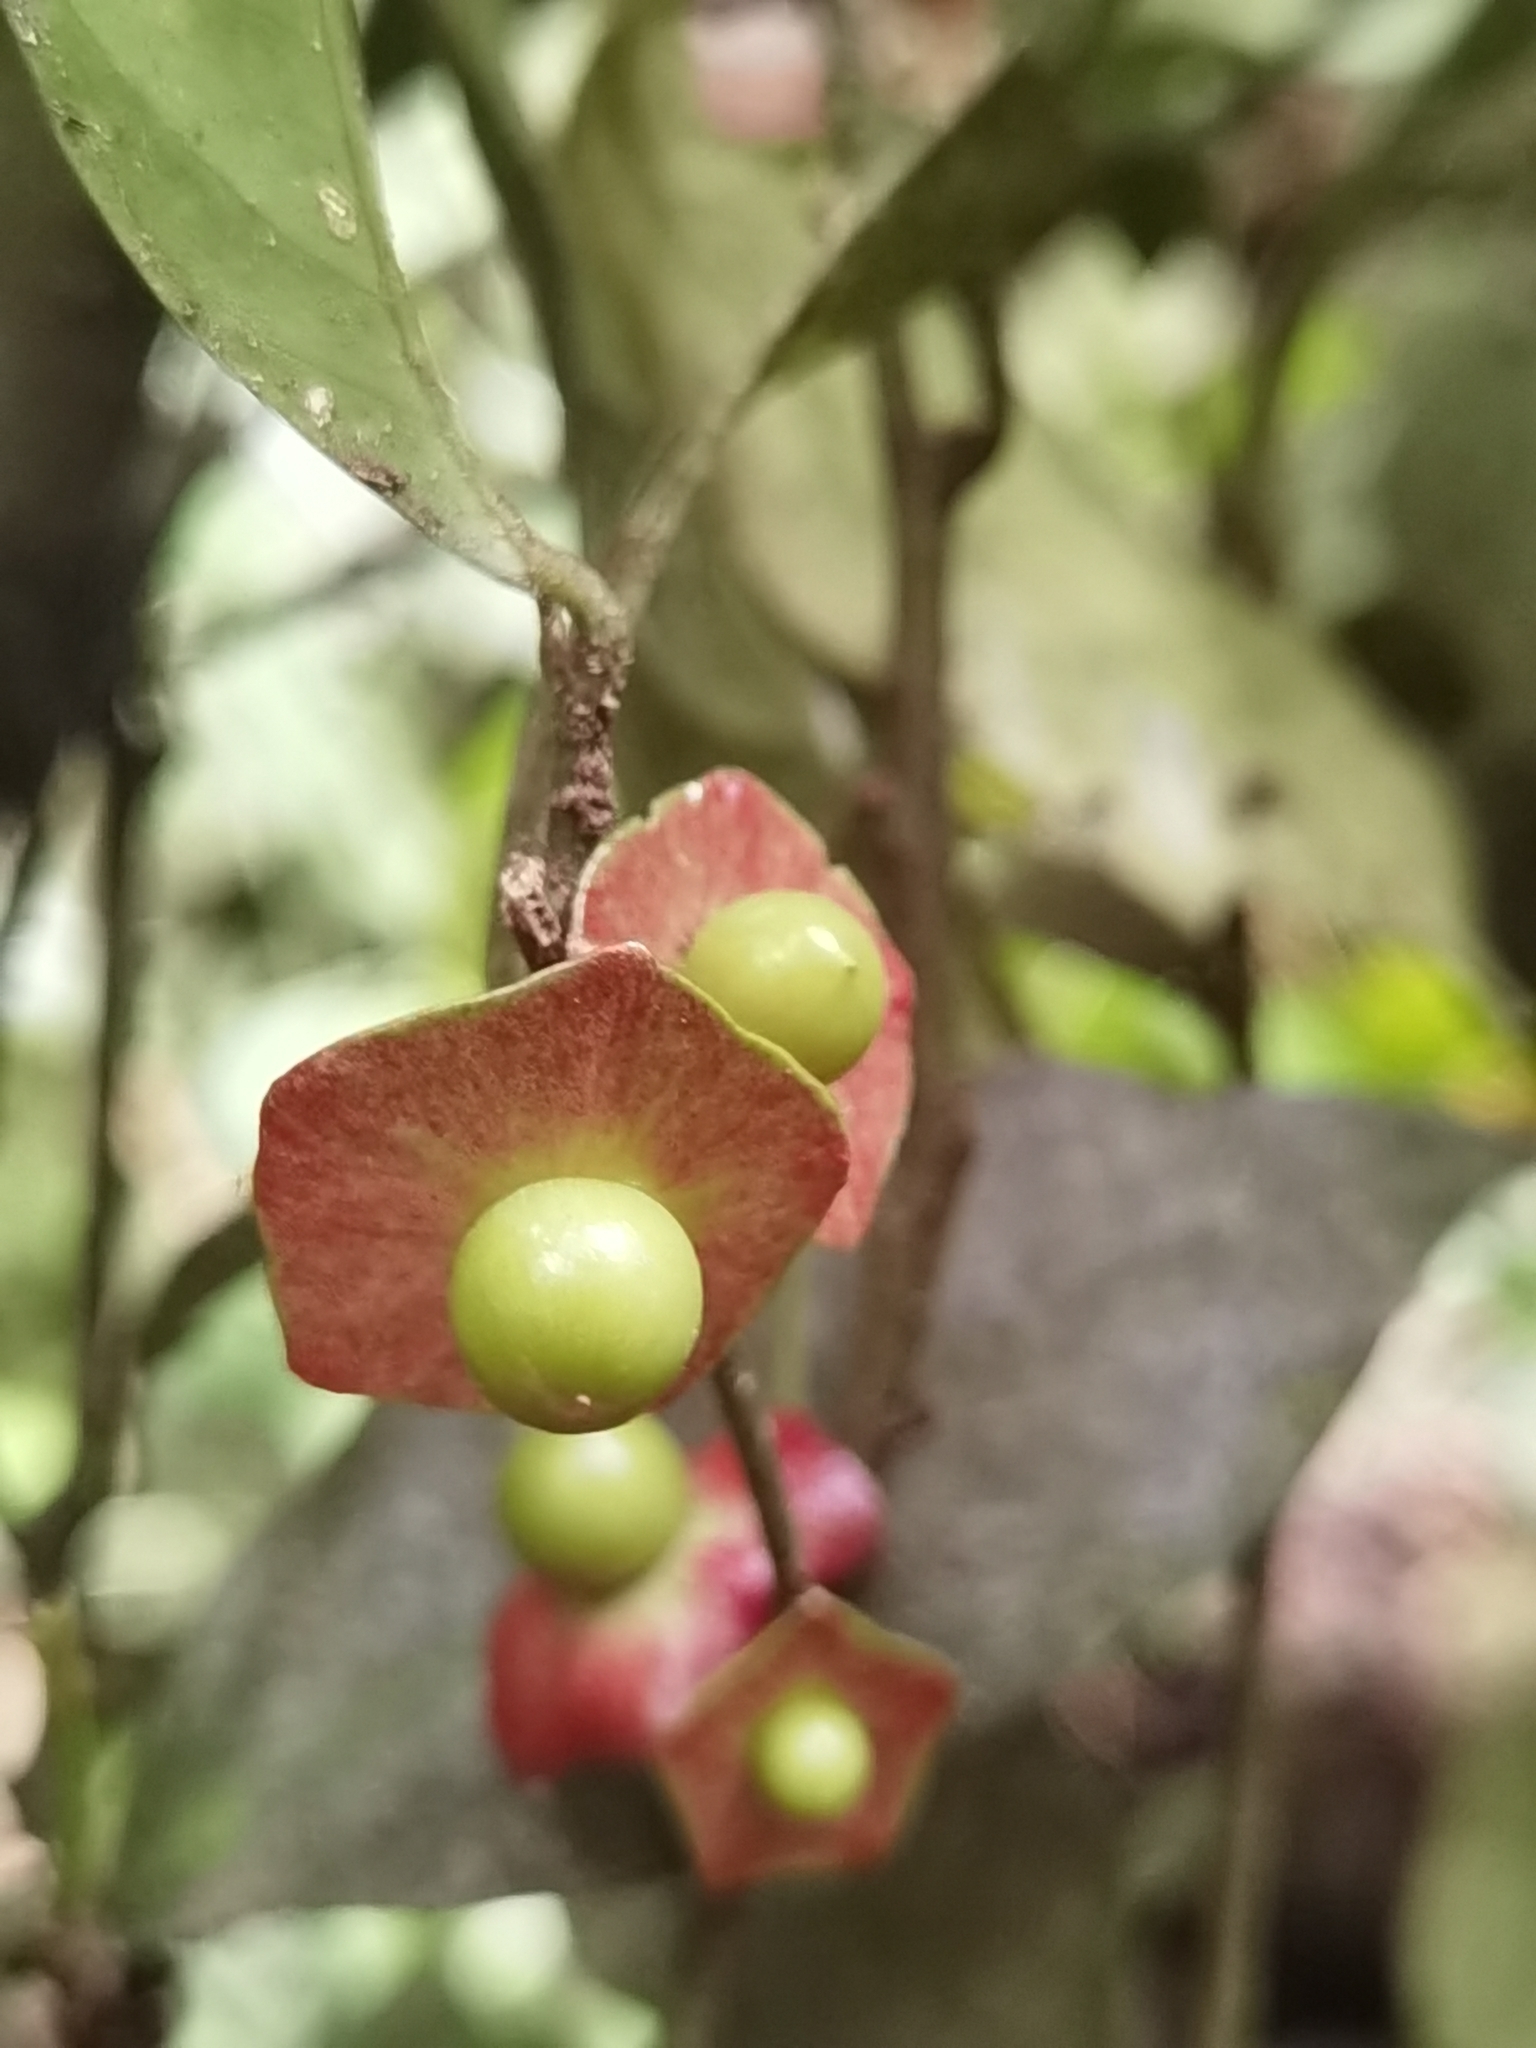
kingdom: Plantae
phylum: Tracheophyta
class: Magnoliopsida
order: Santalales
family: Erythropalaceae
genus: Heisteria
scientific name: Heisteria povedae
